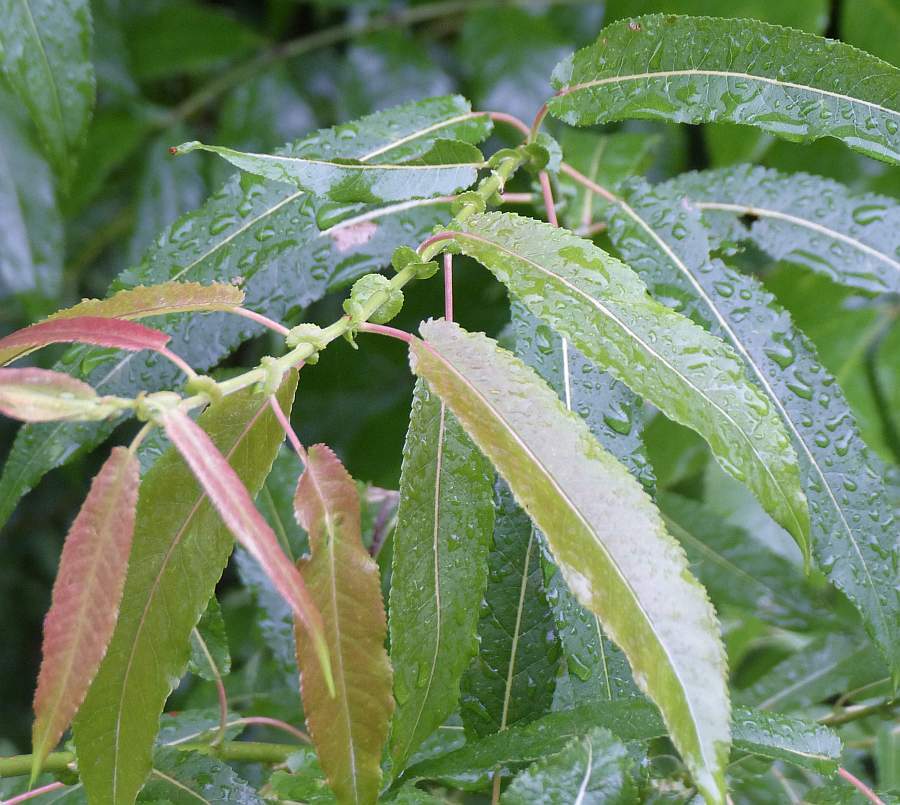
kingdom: Plantae
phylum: Tracheophyta
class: Magnoliopsida
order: Malpighiales
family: Salicaceae
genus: Salix
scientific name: Salix eriocephala
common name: Heart-leaved willow
